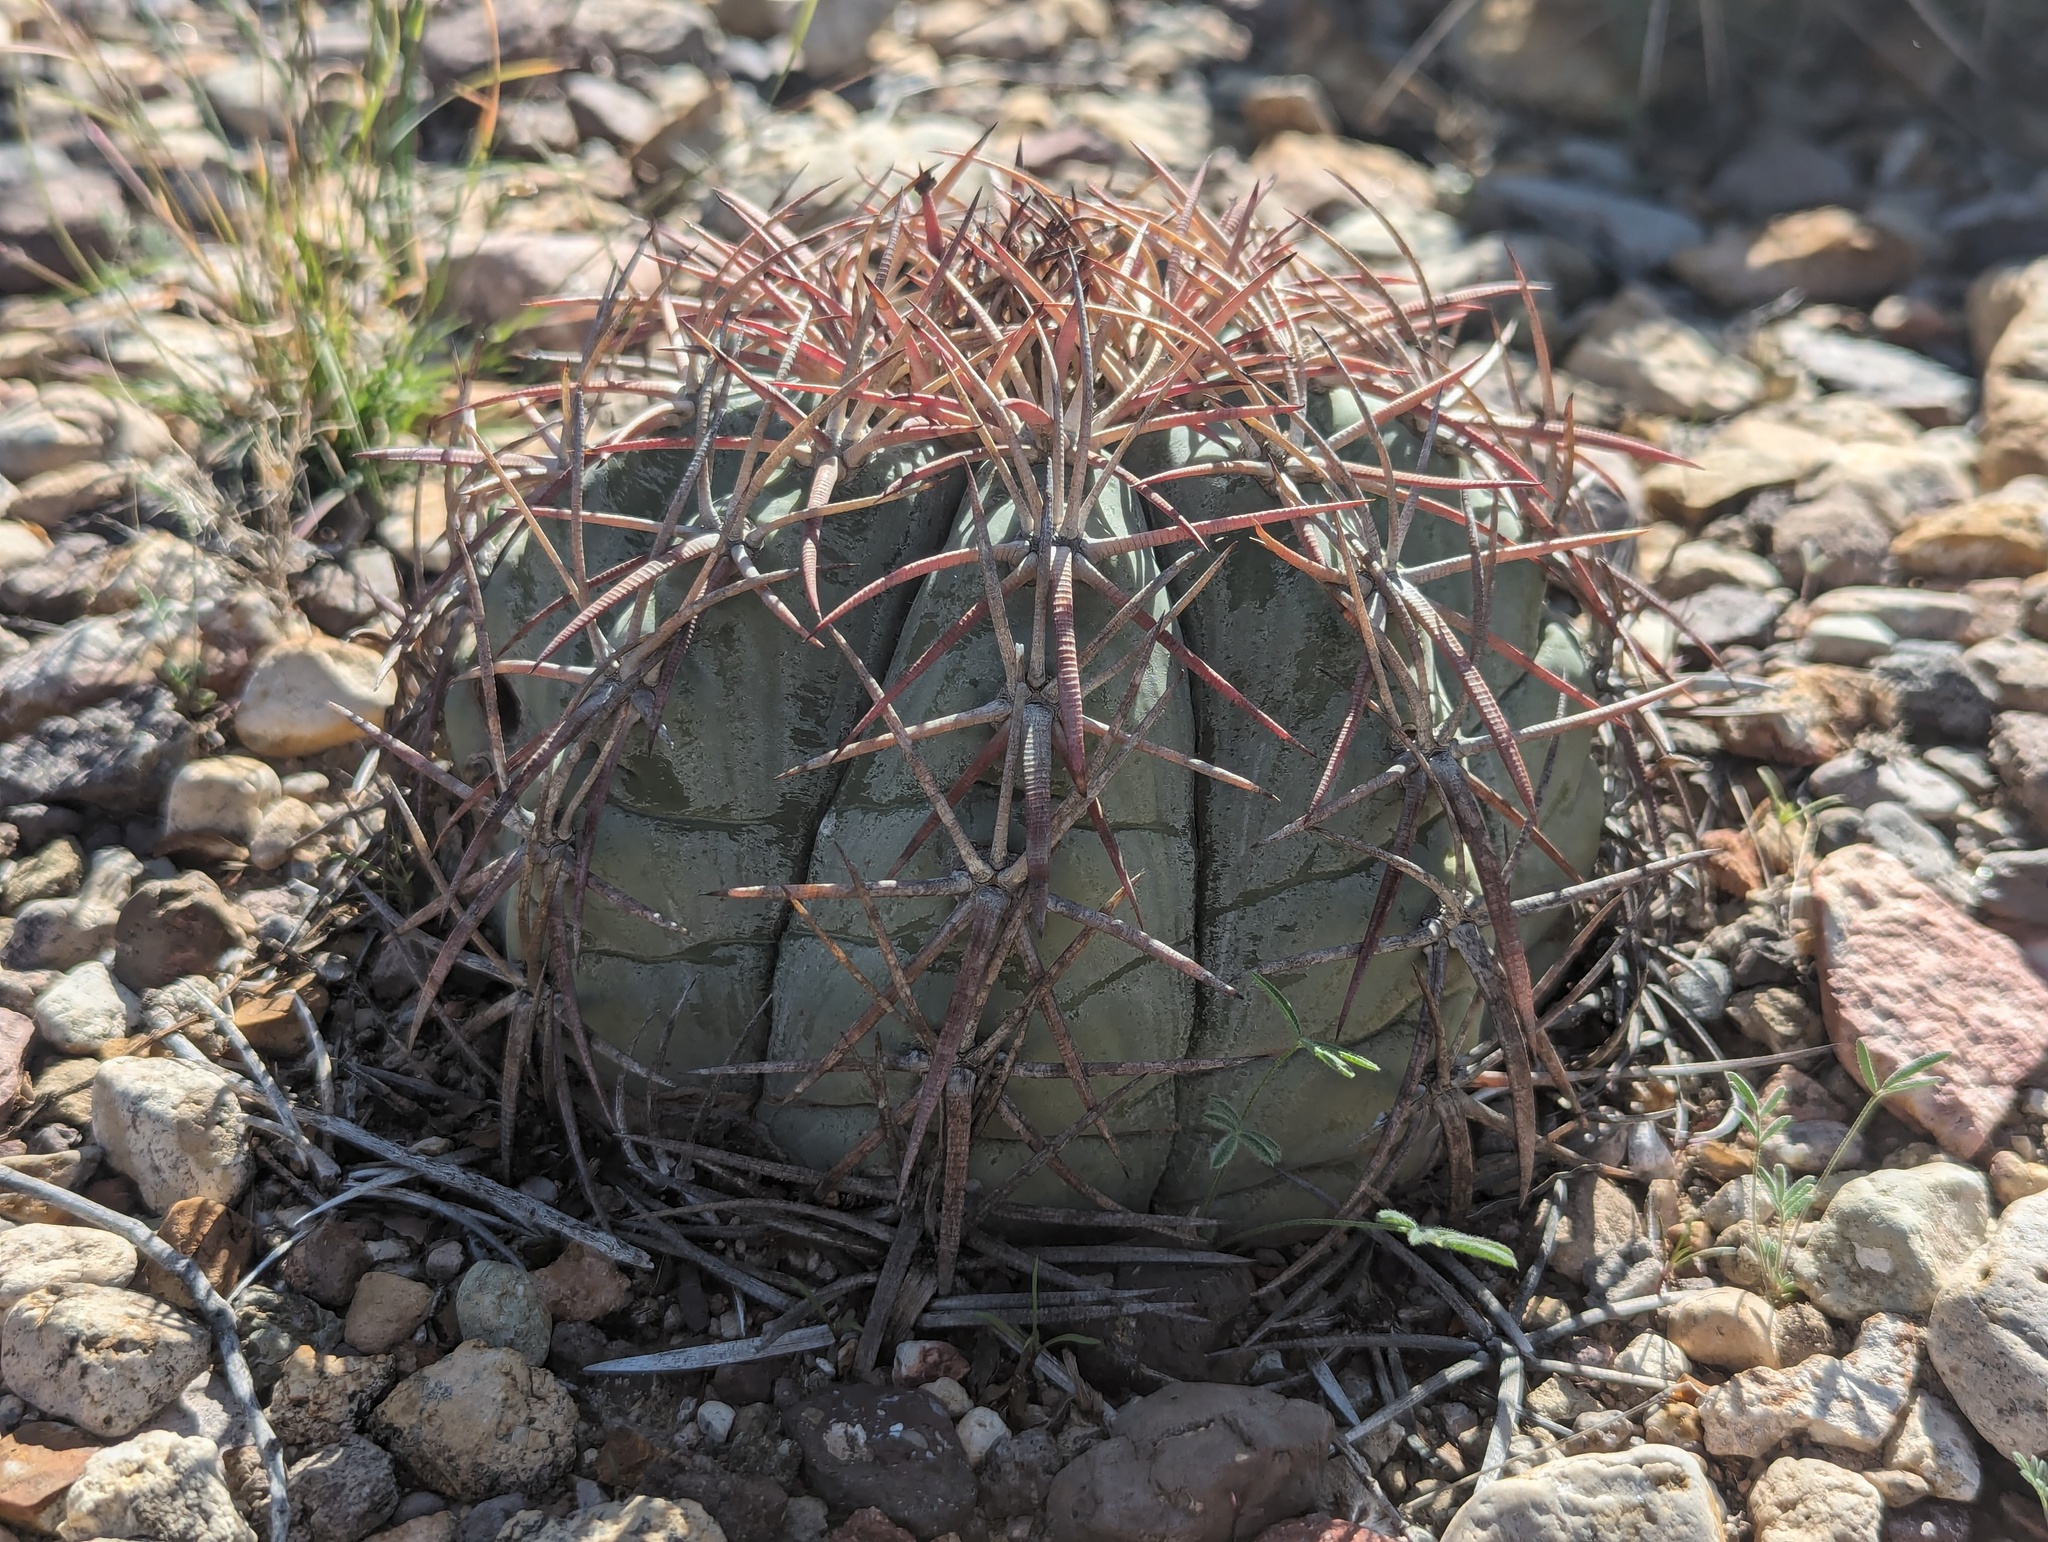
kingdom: Plantae
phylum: Tracheophyta
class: Magnoliopsida
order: Caryophyllales
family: Cactaceae
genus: Echinocactus
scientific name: Echinocactus horizonthalonius
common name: Devilshead
